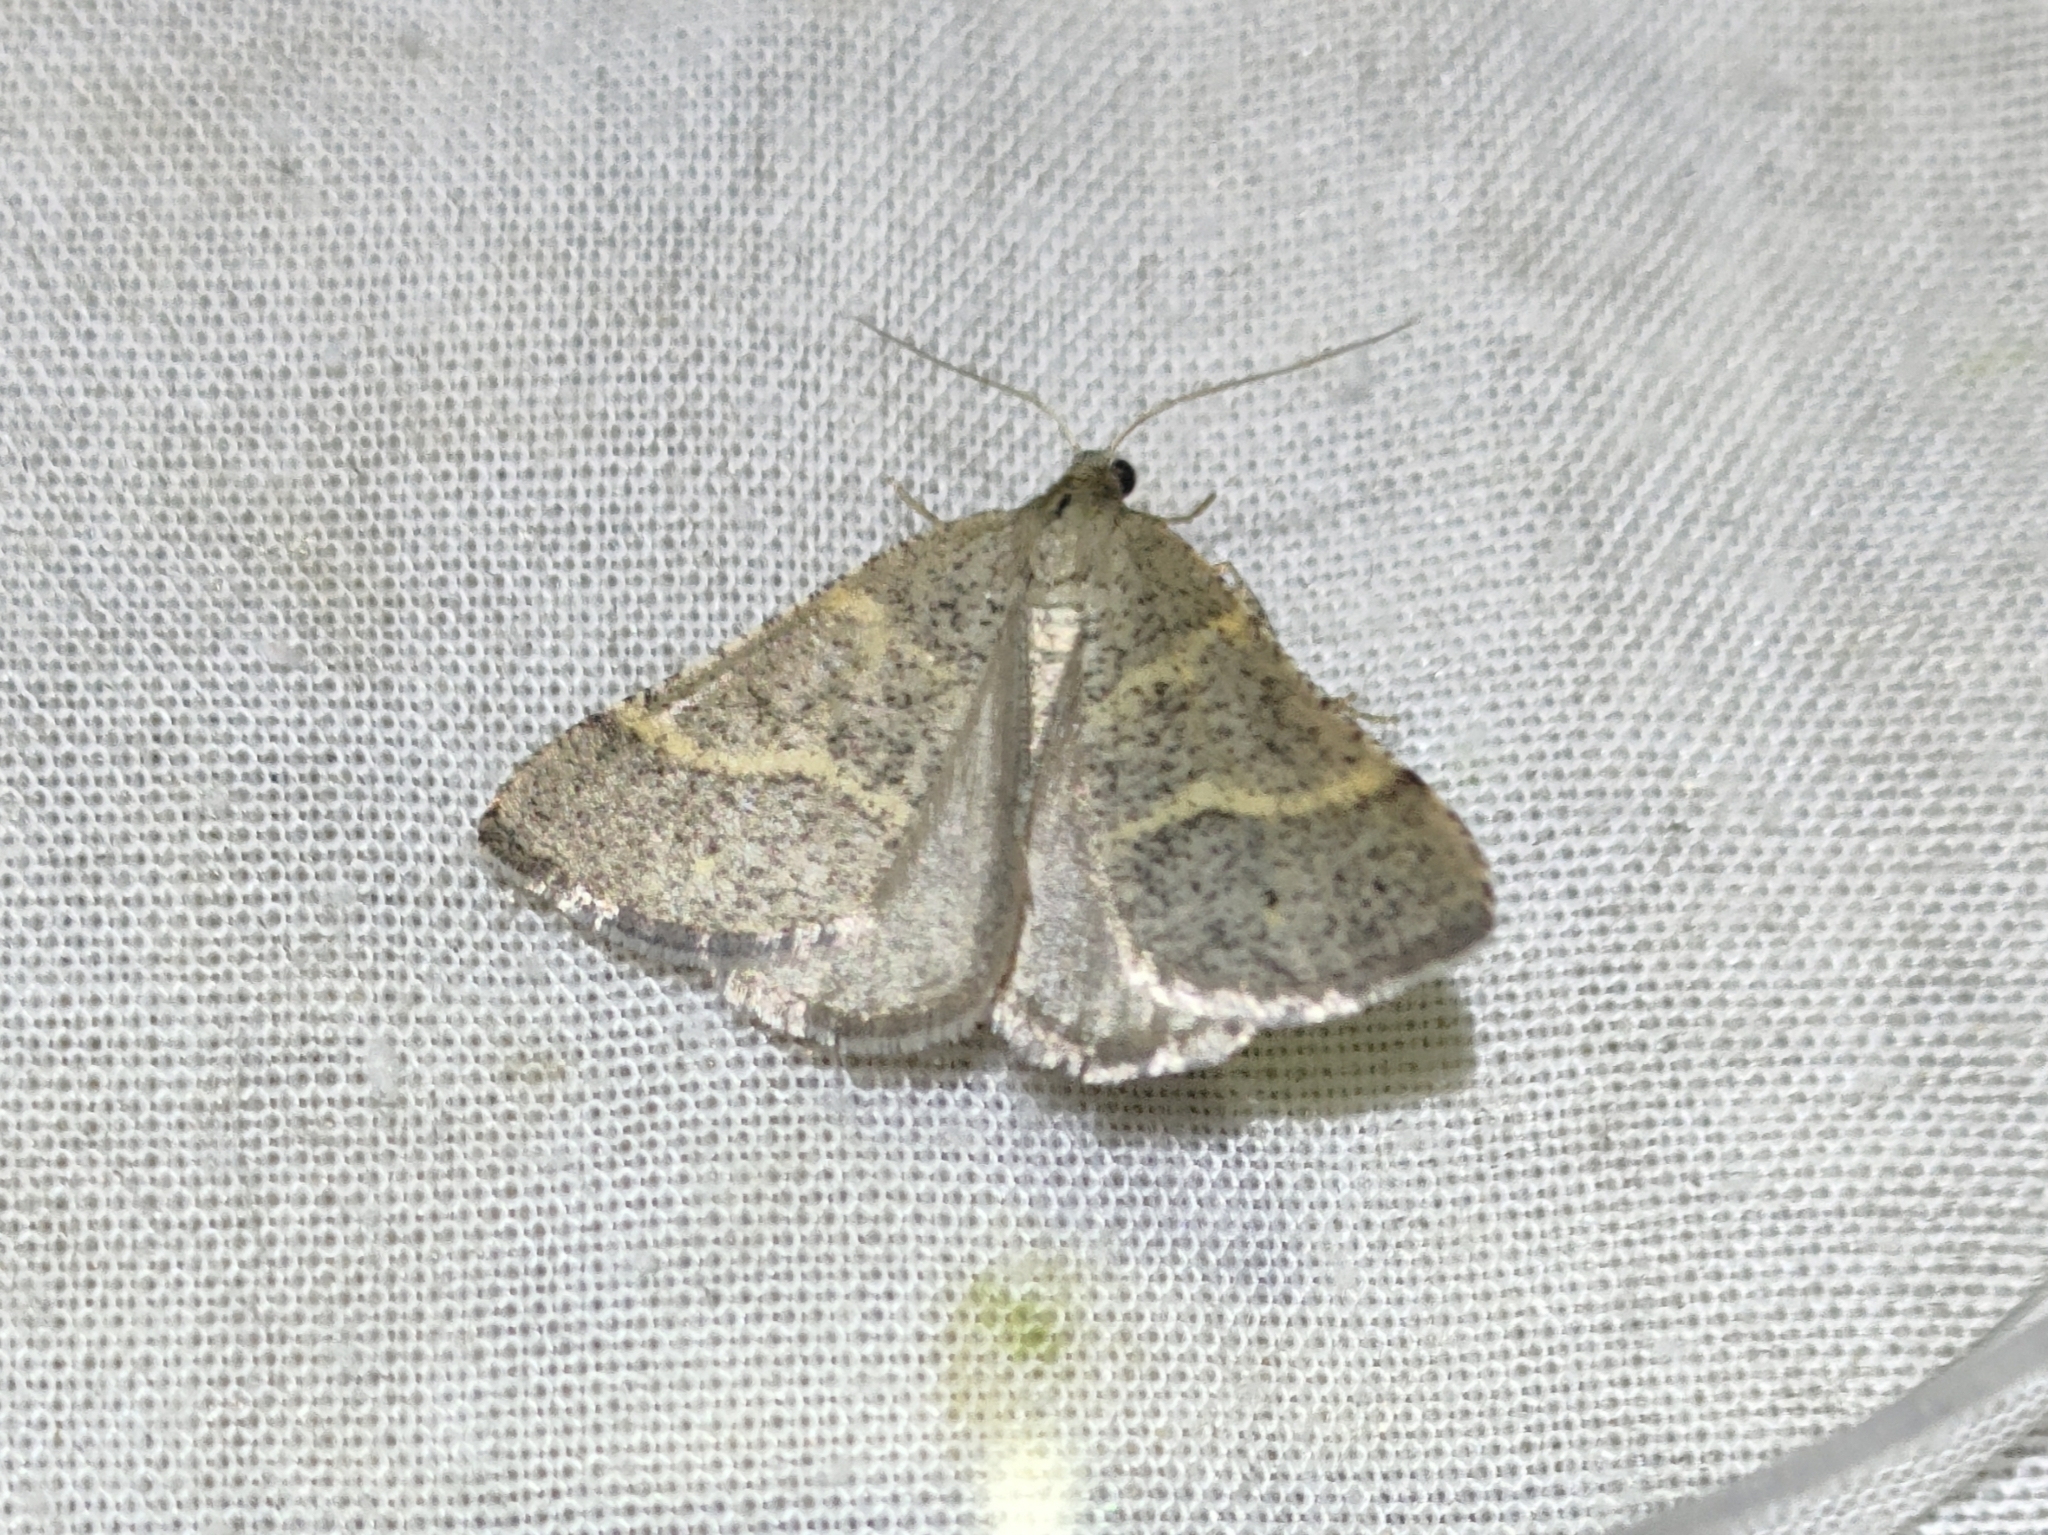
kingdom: Animalia
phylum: Arthropoda
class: Insecta
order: Lepidoptera
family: Pterophoridae
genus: Pterophorus
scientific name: Pterophorus Petrophora narbonea
